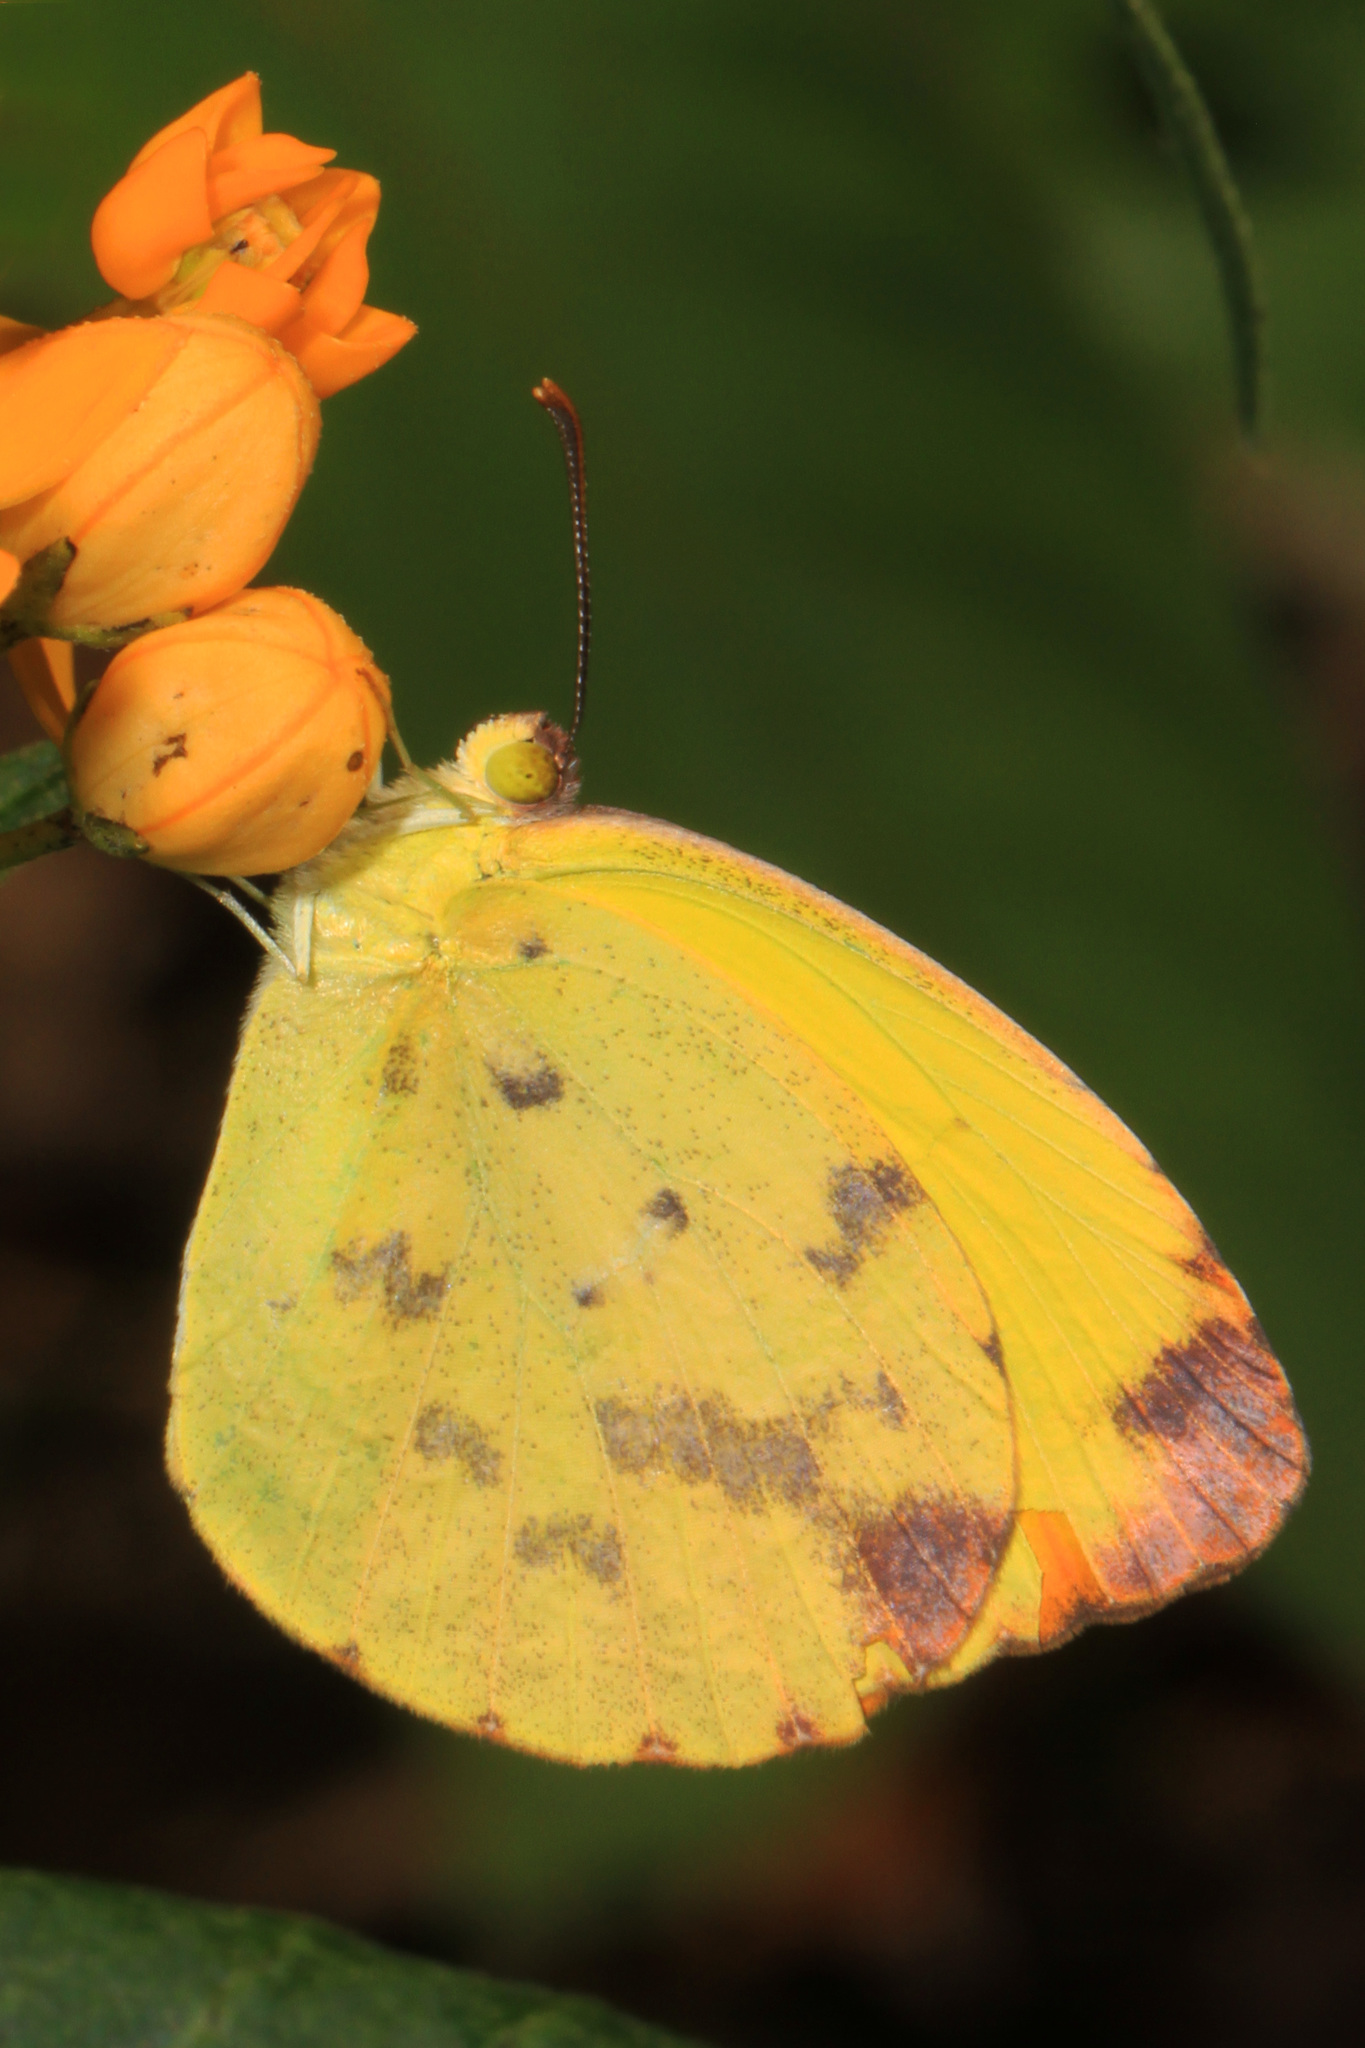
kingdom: Animalia
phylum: Arthropoda
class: Insecta
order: Lepidoptera
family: Pieridae
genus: Pyrisitia
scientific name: Pyrisitia dina
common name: Dina yellow
